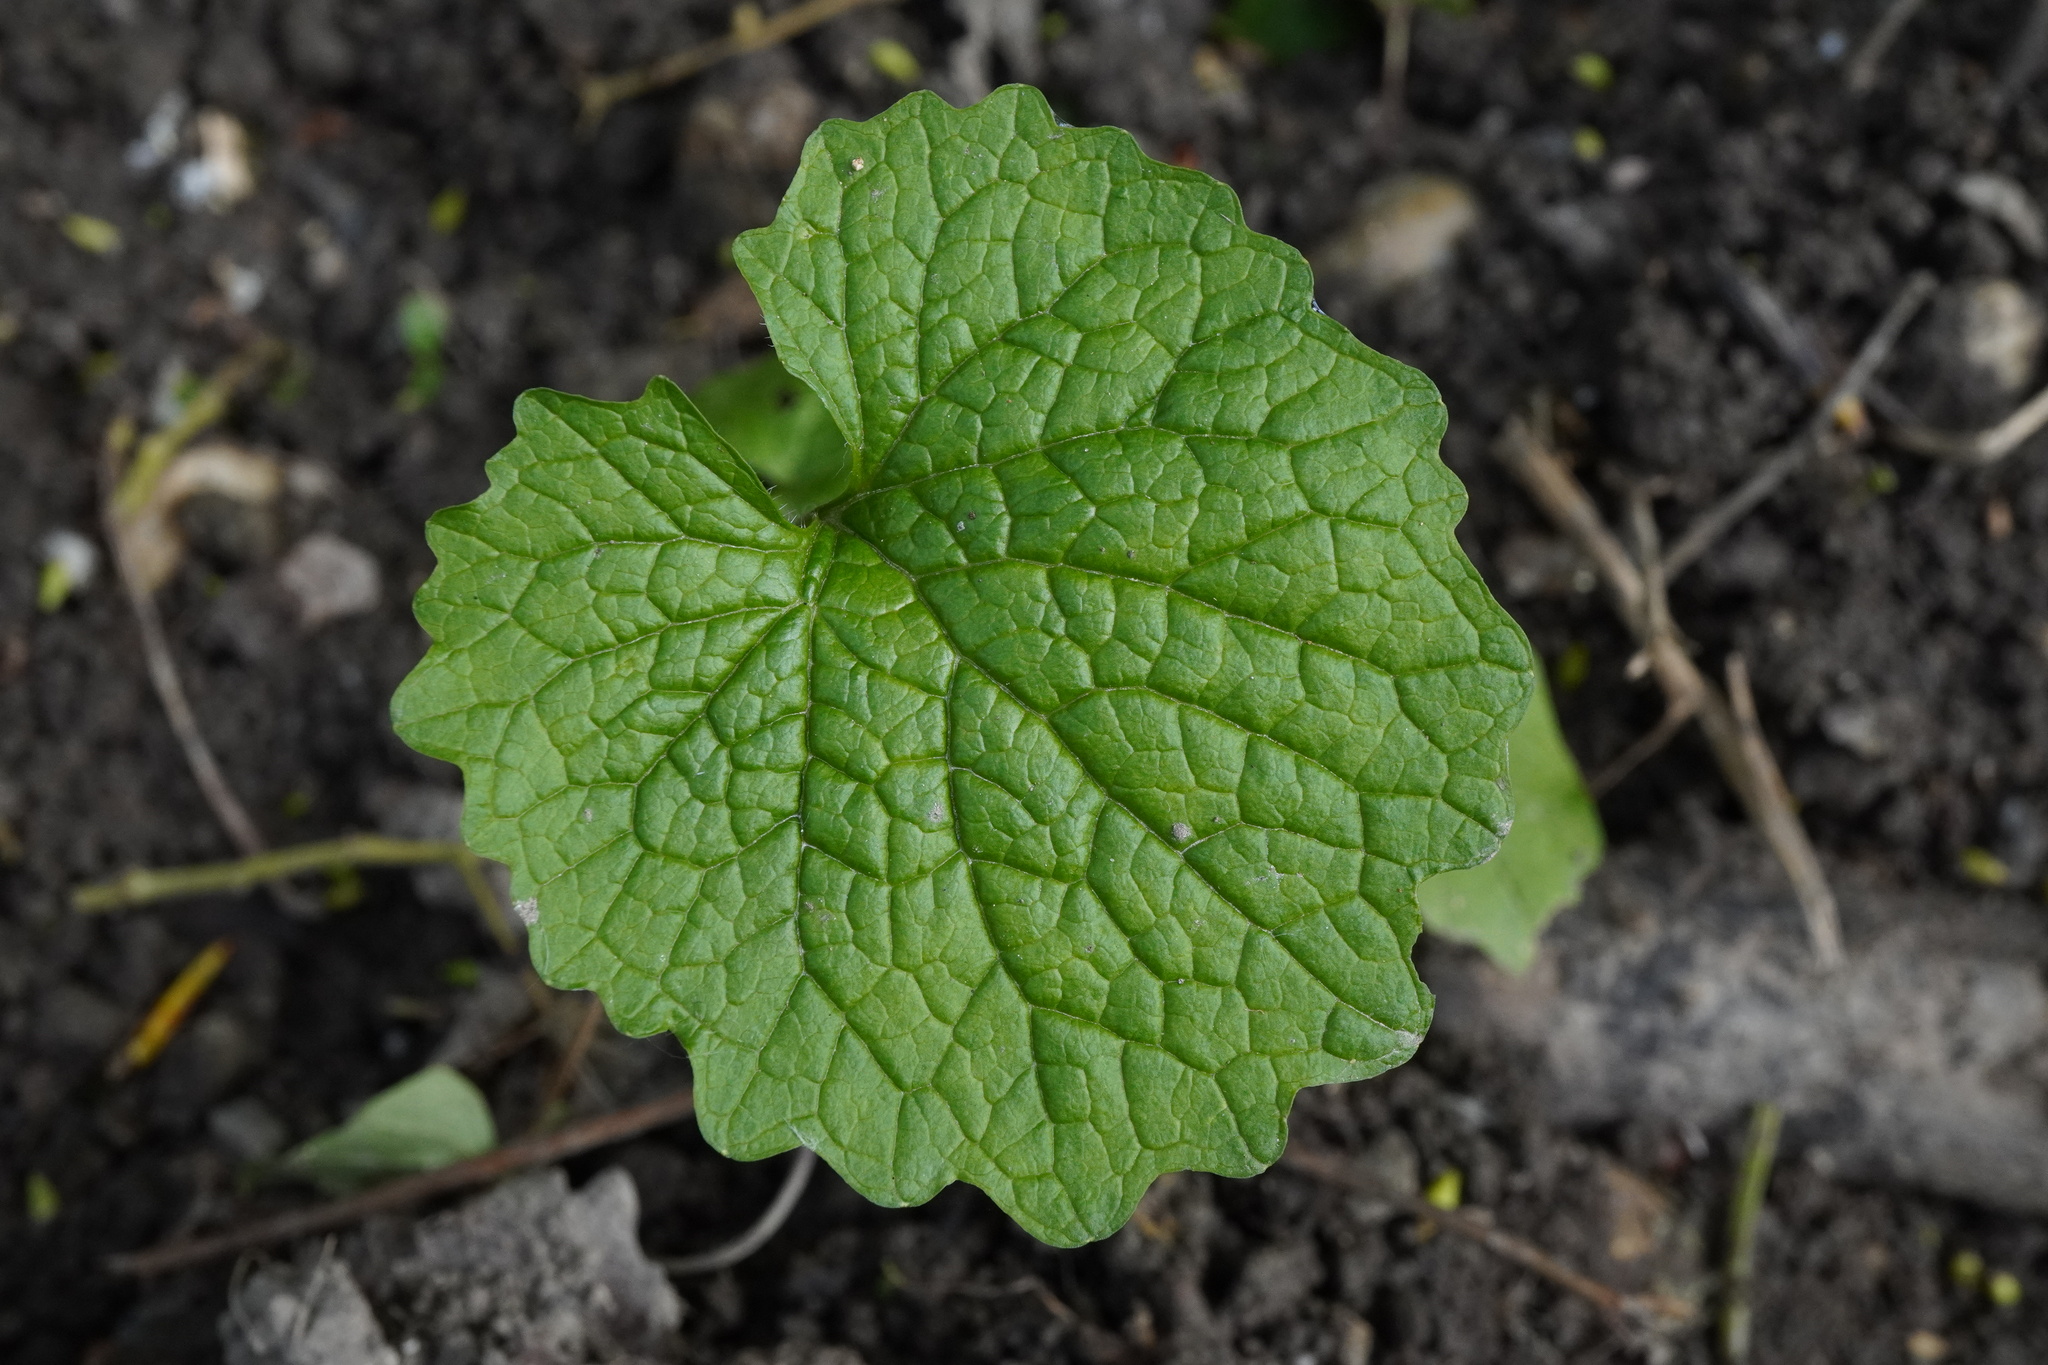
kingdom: Plantae
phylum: Tracheophyta
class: Magnoliopsida
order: Brassicales
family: Brassicaceae
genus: Alliaria
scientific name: Alliaria petiolata
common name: Garlic mustard
